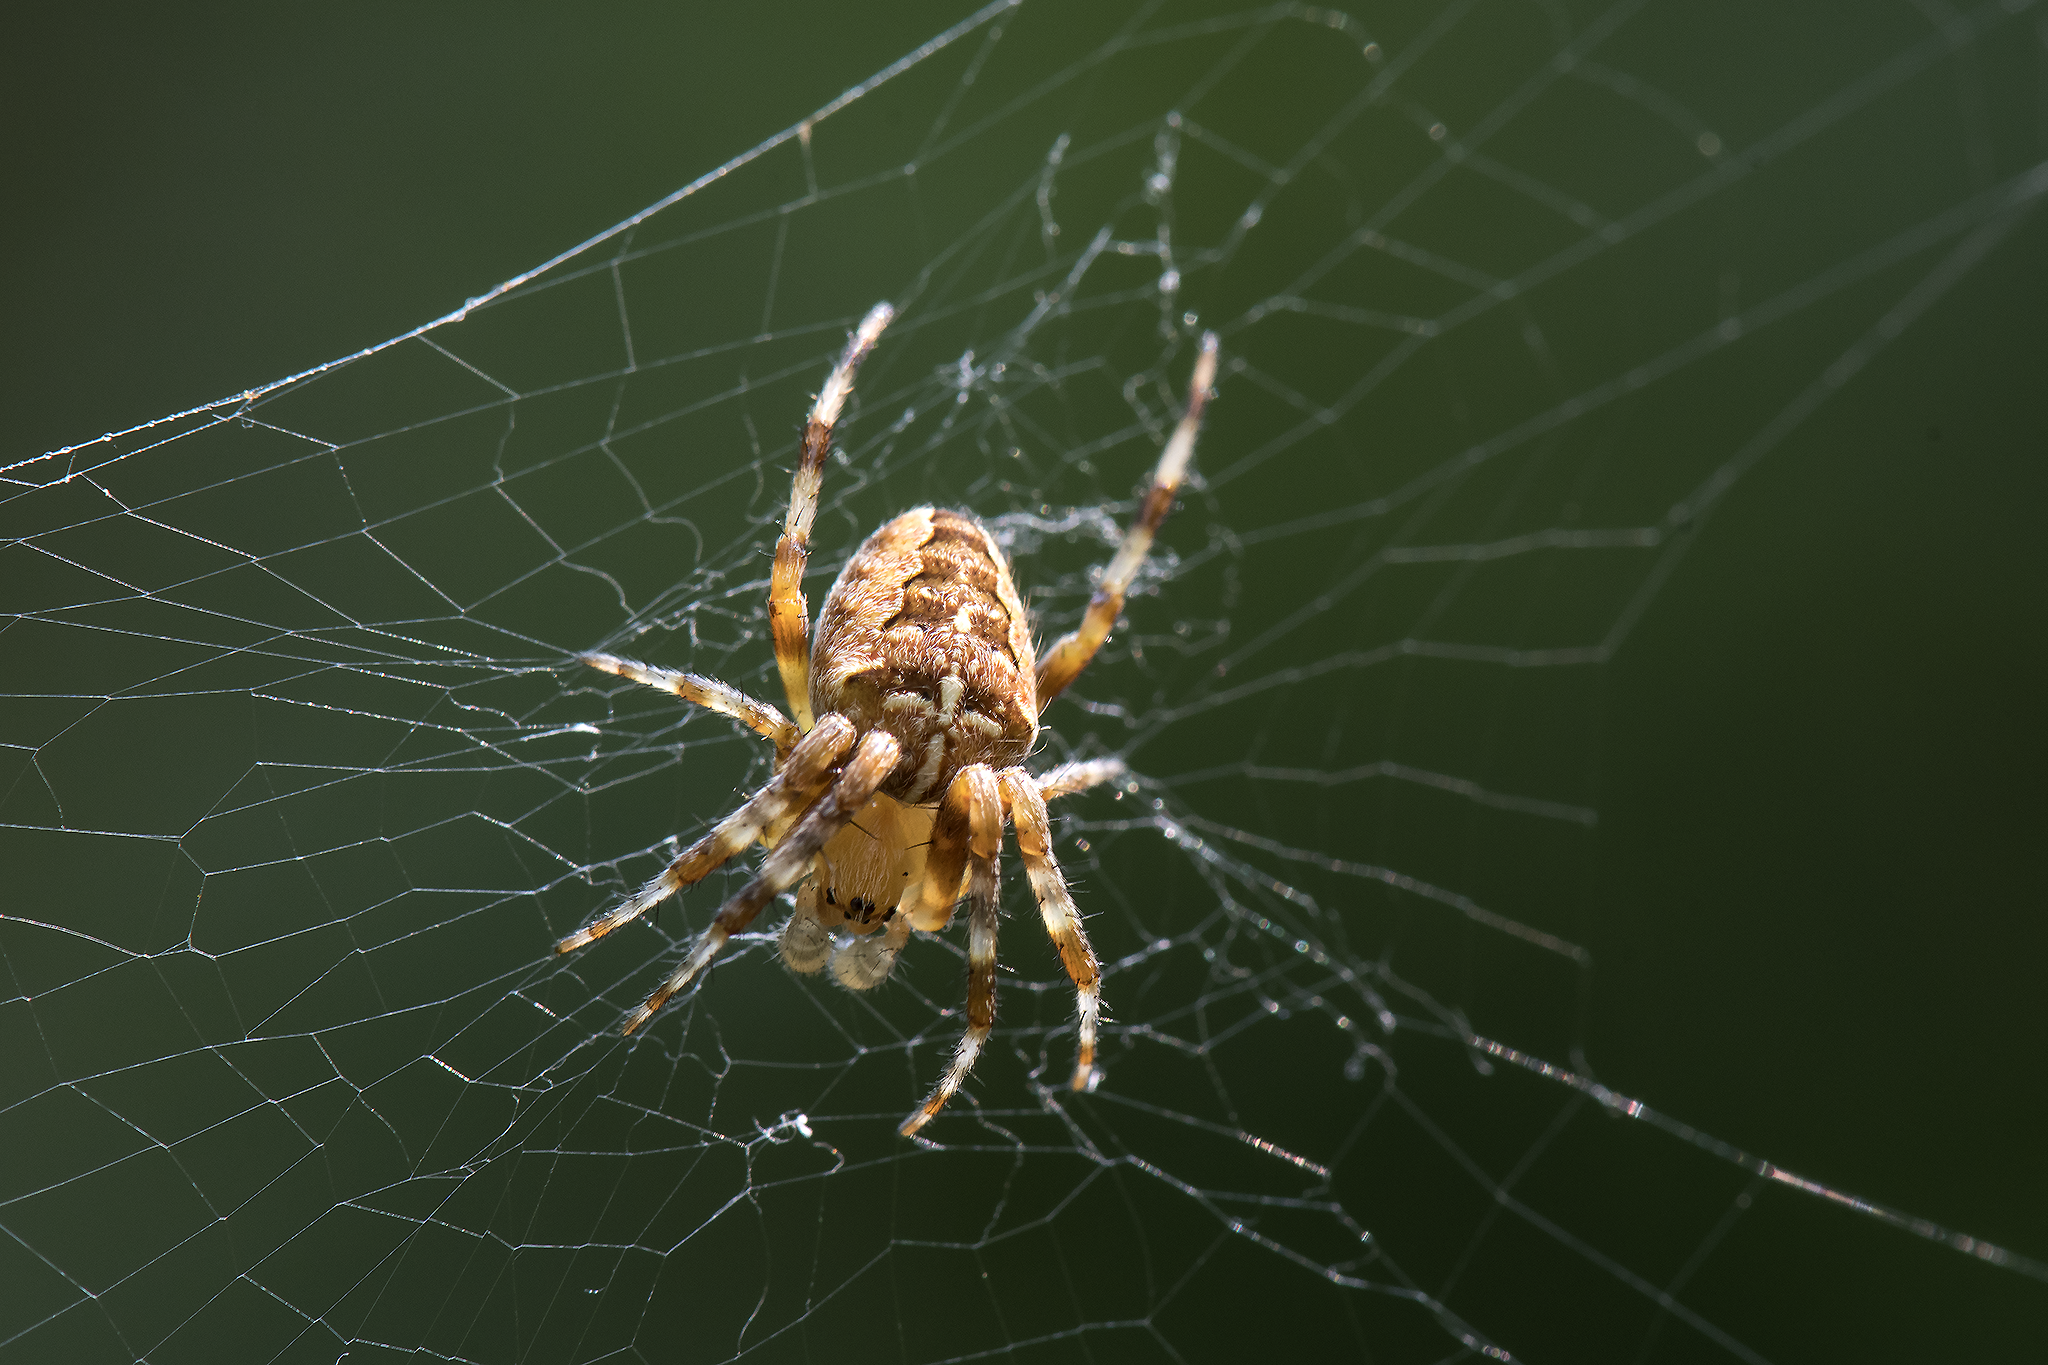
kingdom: Animalia
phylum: Arthropoda
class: Arachnida
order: Araneae
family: Araneidae
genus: Araneus
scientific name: Araneus diadematus
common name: Cross orbweaver
